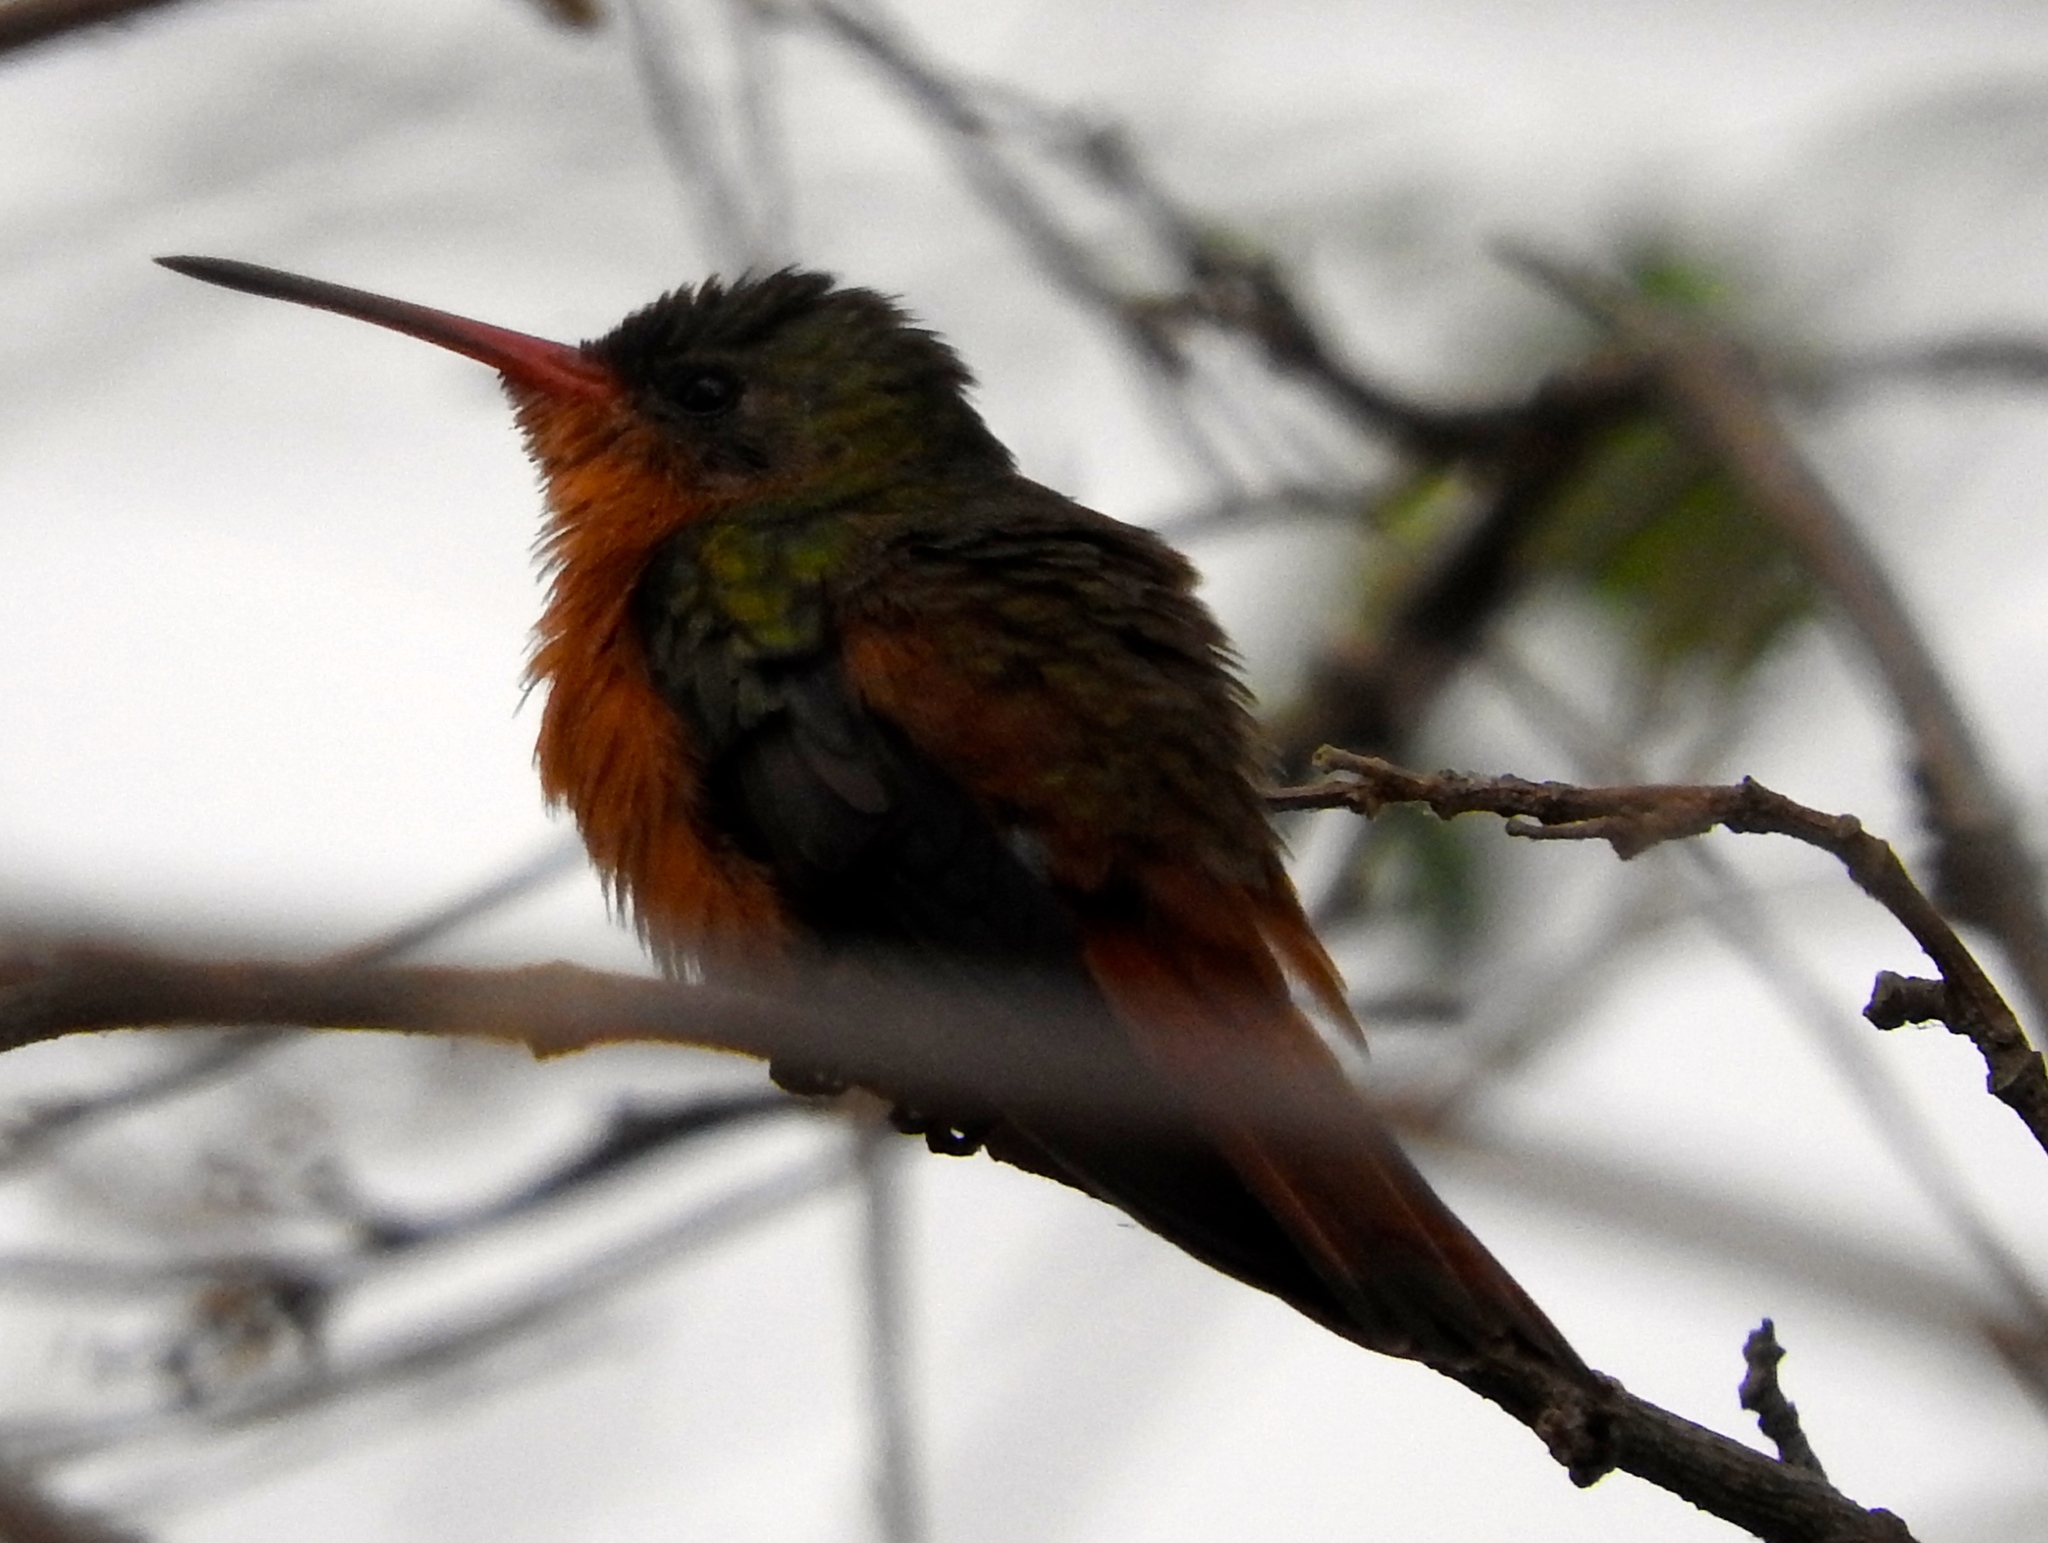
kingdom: Animalia
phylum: Chordata
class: Aves
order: Apodiformes
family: Trochilidae
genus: Amazilia
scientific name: Amazilia rutila
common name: Cinnamon hummingbird
